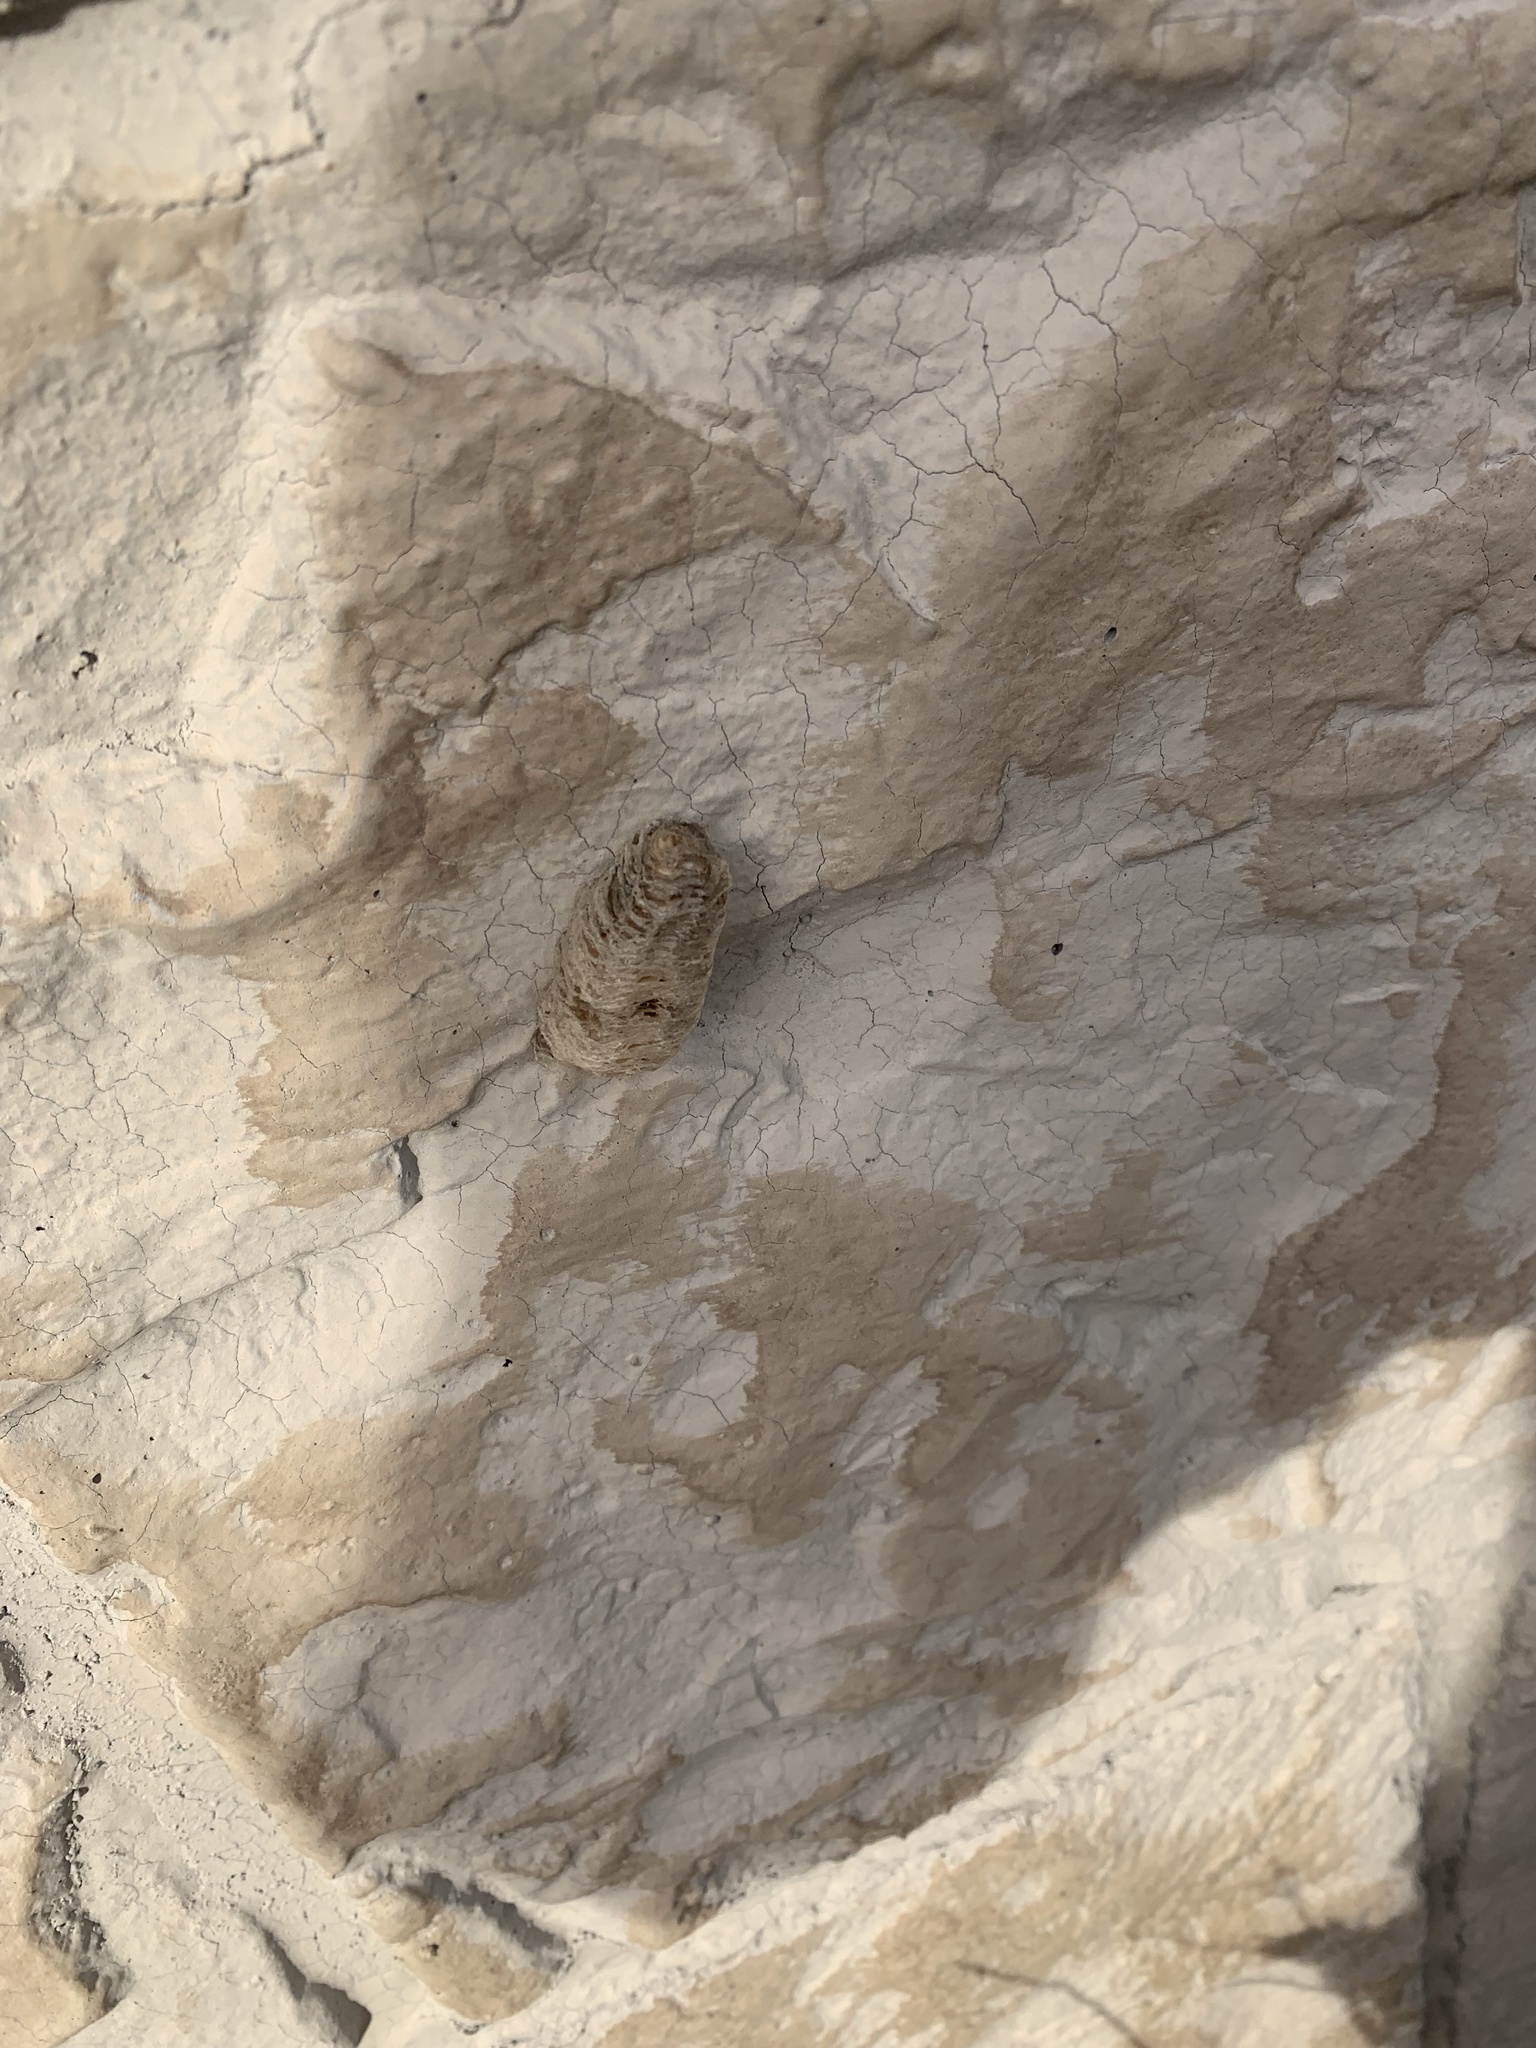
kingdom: Animalia
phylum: Arthropoda
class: Insecta
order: Mantodea
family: Mantidae
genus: Mantis
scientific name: Mantis religiosa
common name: Praying mantis
